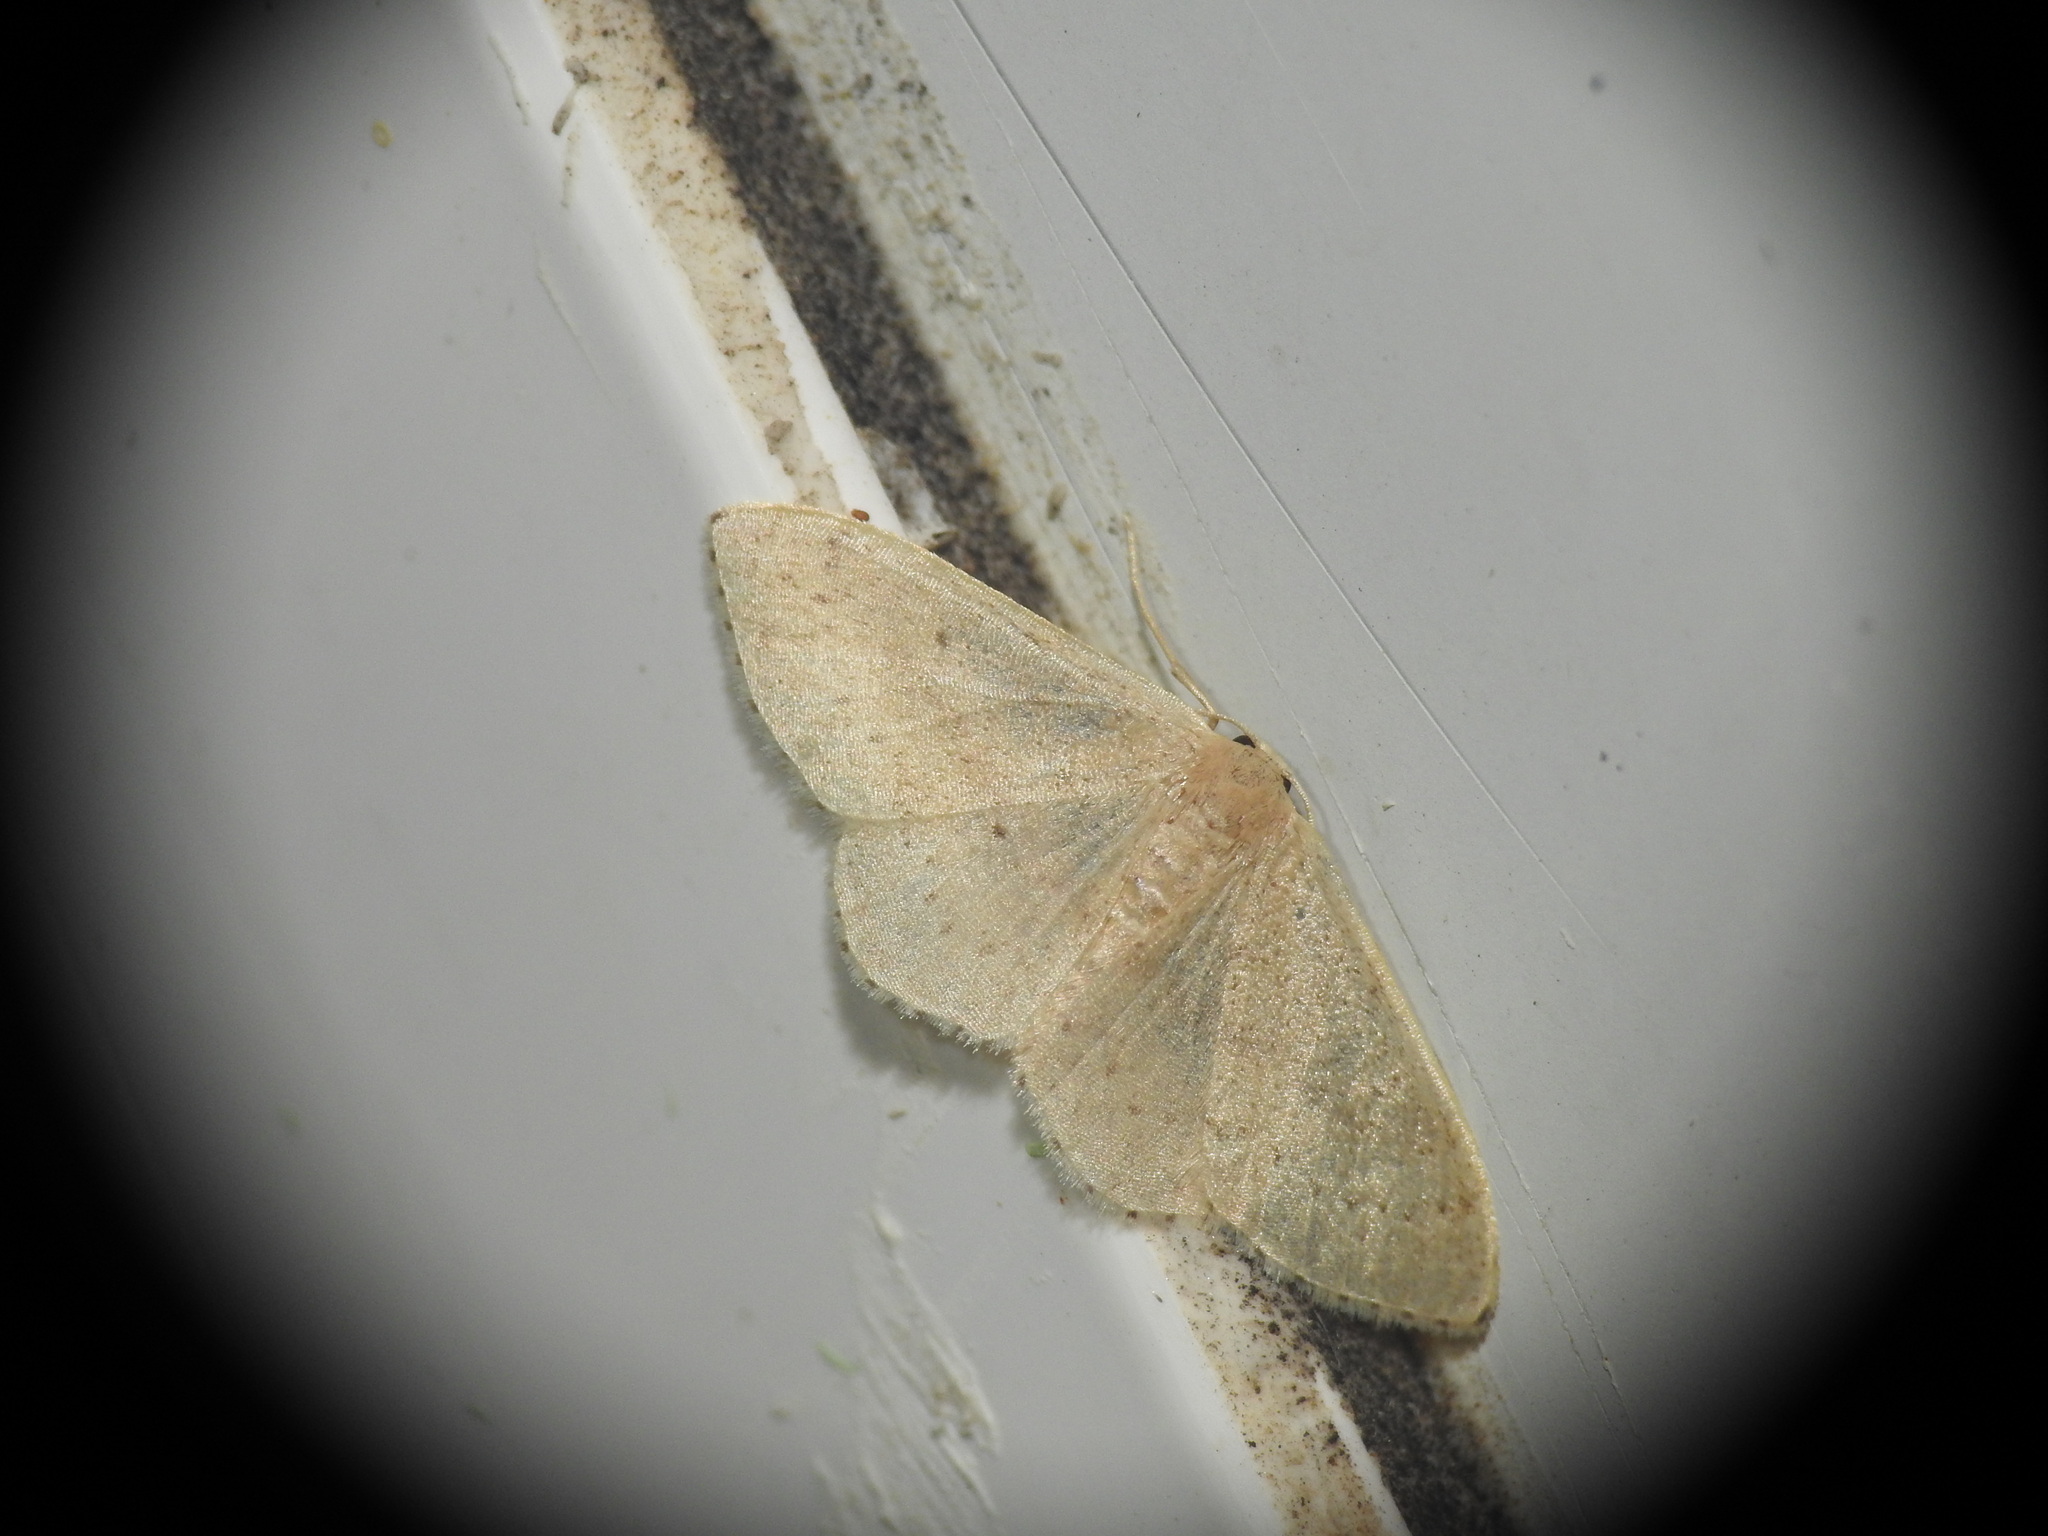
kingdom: Animalia
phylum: Arthropoda
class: Insecta
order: Lepidoptera
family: Geometridae
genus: Idaea
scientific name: Idaea eugeniata
